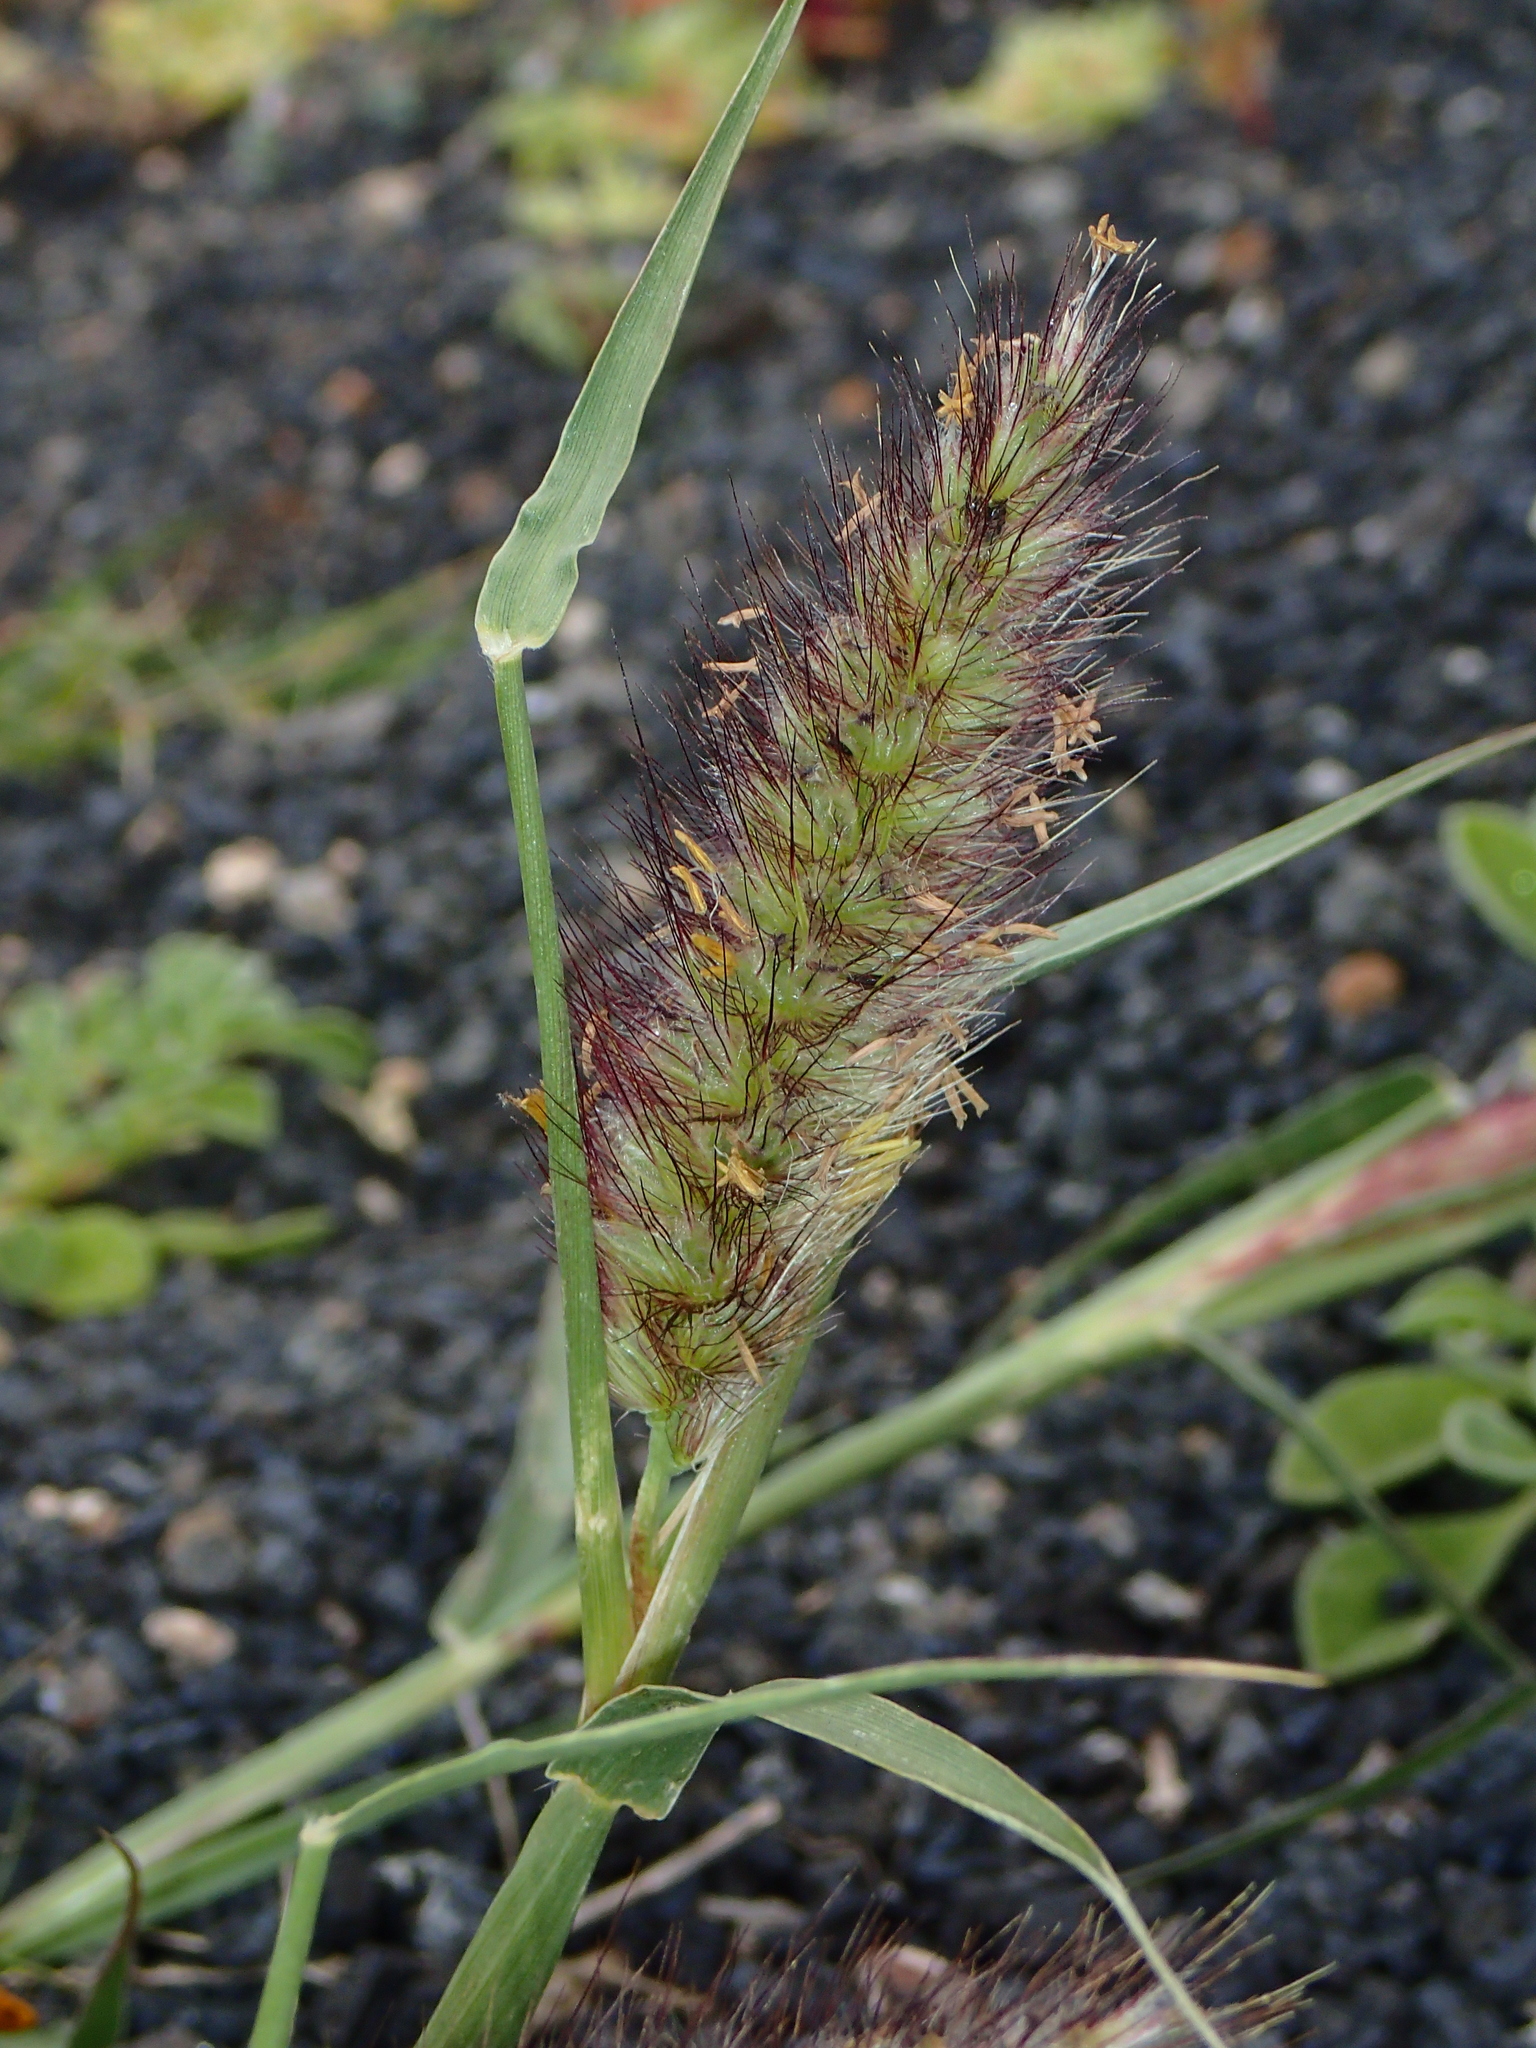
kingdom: Plantae
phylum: Tracheophyta
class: Liliopsida
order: Poales
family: Poaceae
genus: Cenchrus
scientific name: Cenchrus ciliaris
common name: Buffelgrass
